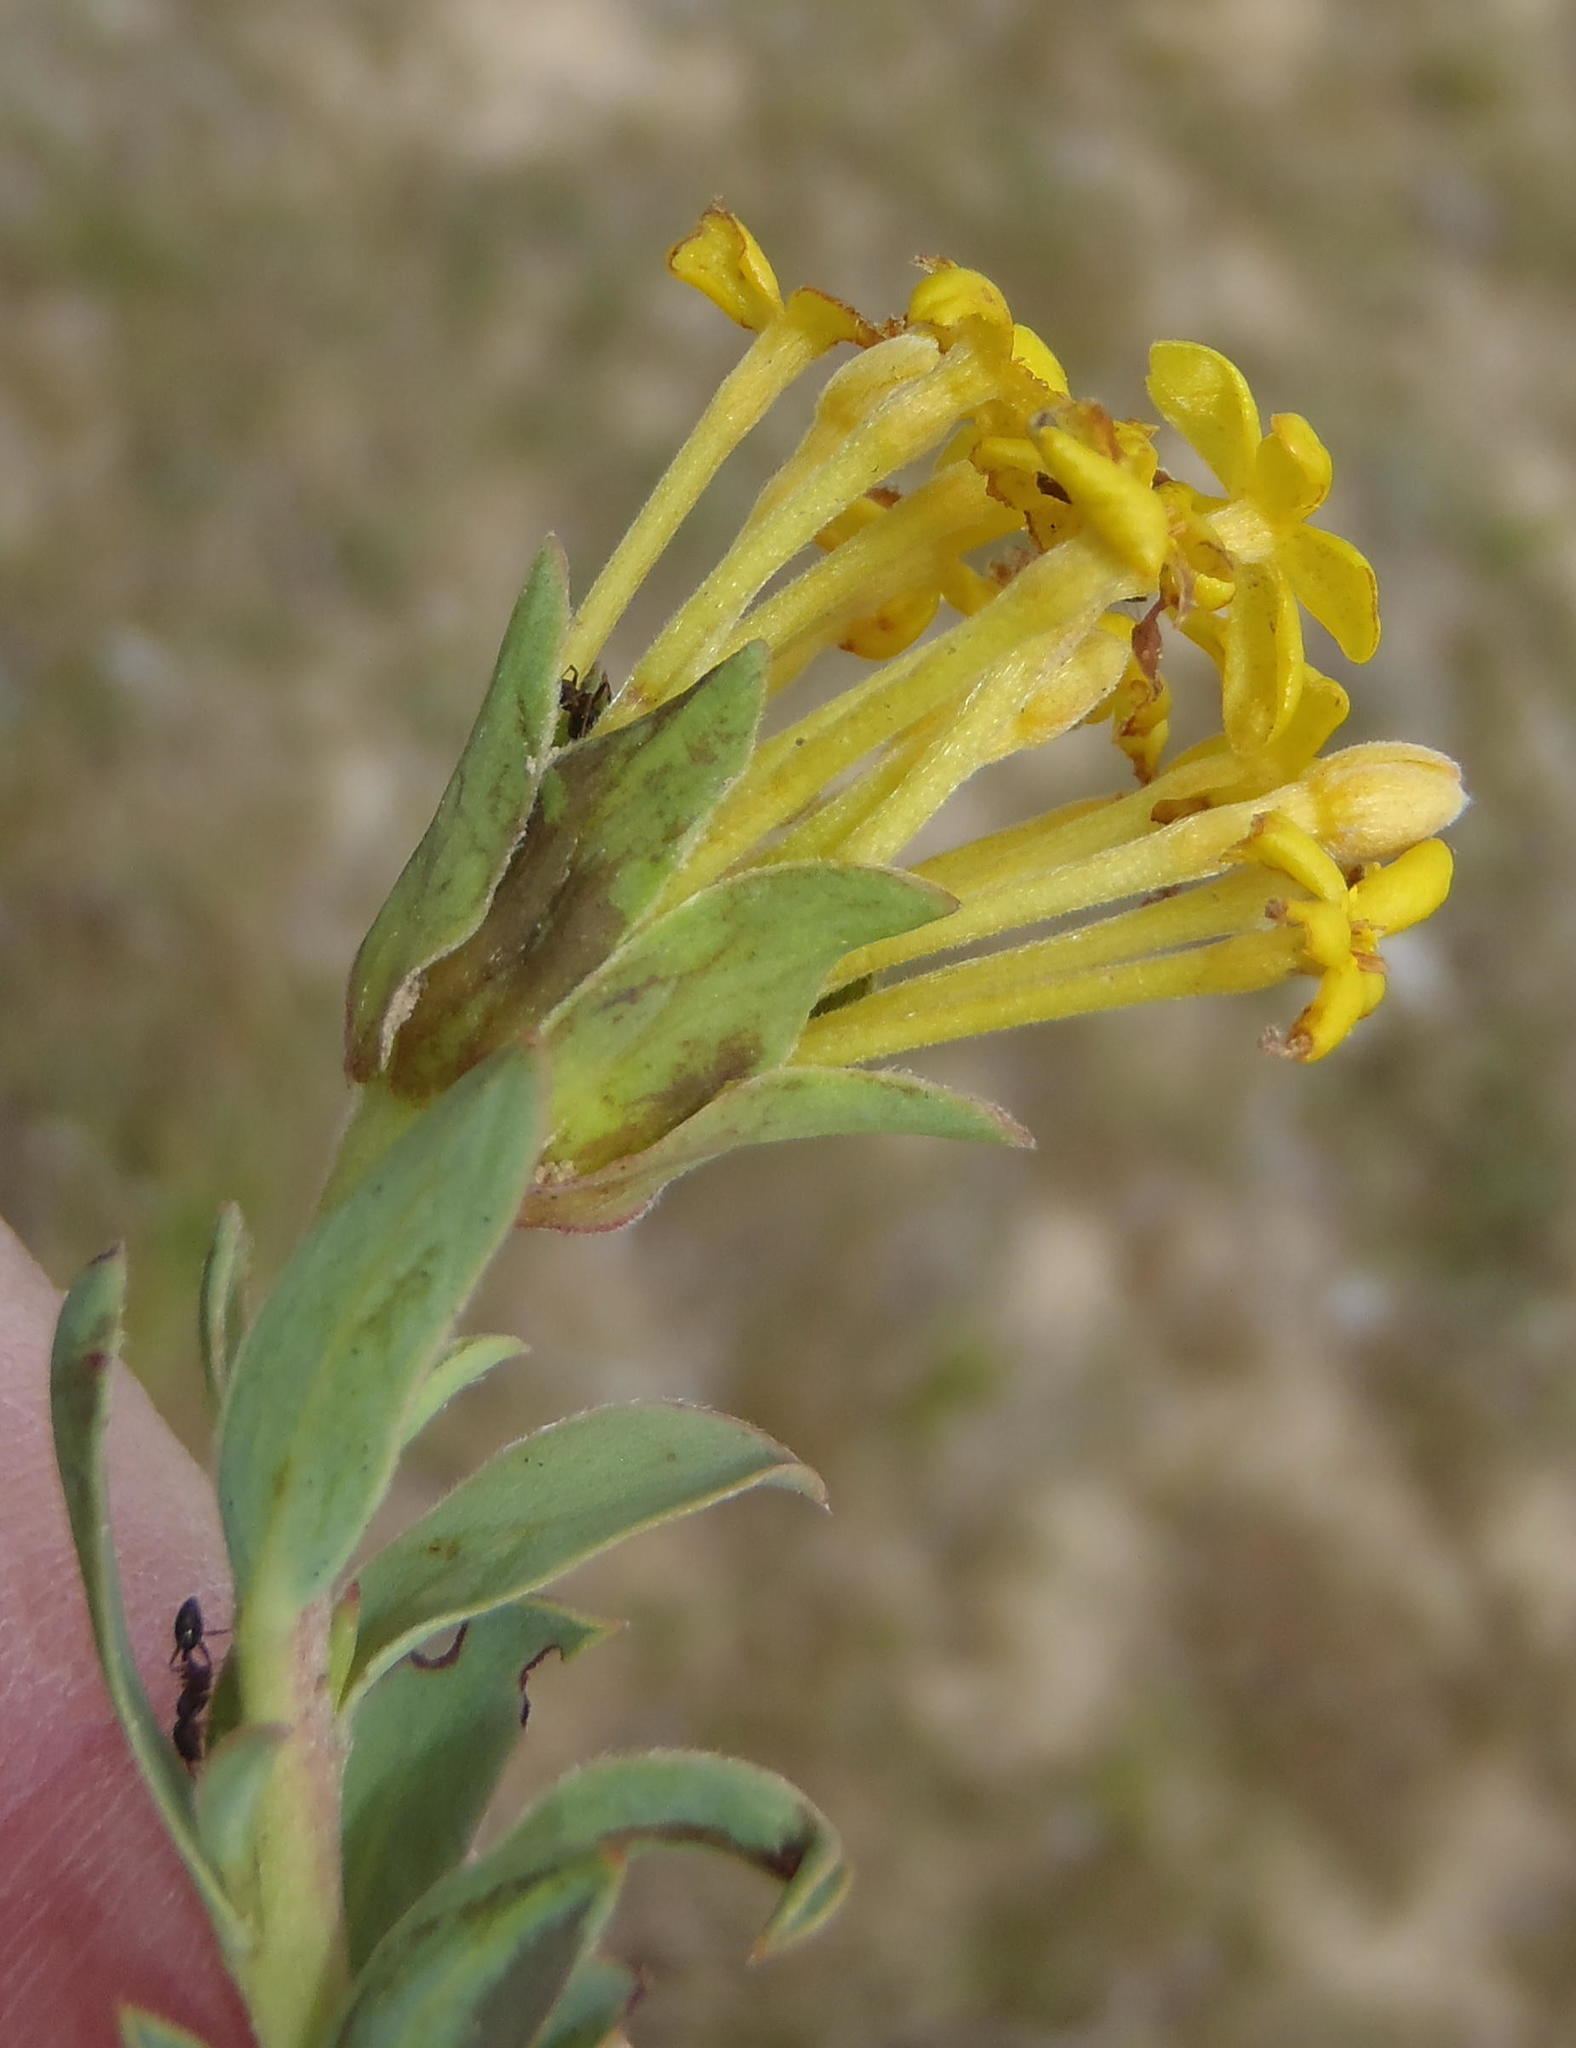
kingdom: Plantae
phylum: Tracheophyta
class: Magnoliopsida
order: Malvales
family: Thymelaeaceae
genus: Gnidia
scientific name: Gnidia capitata
